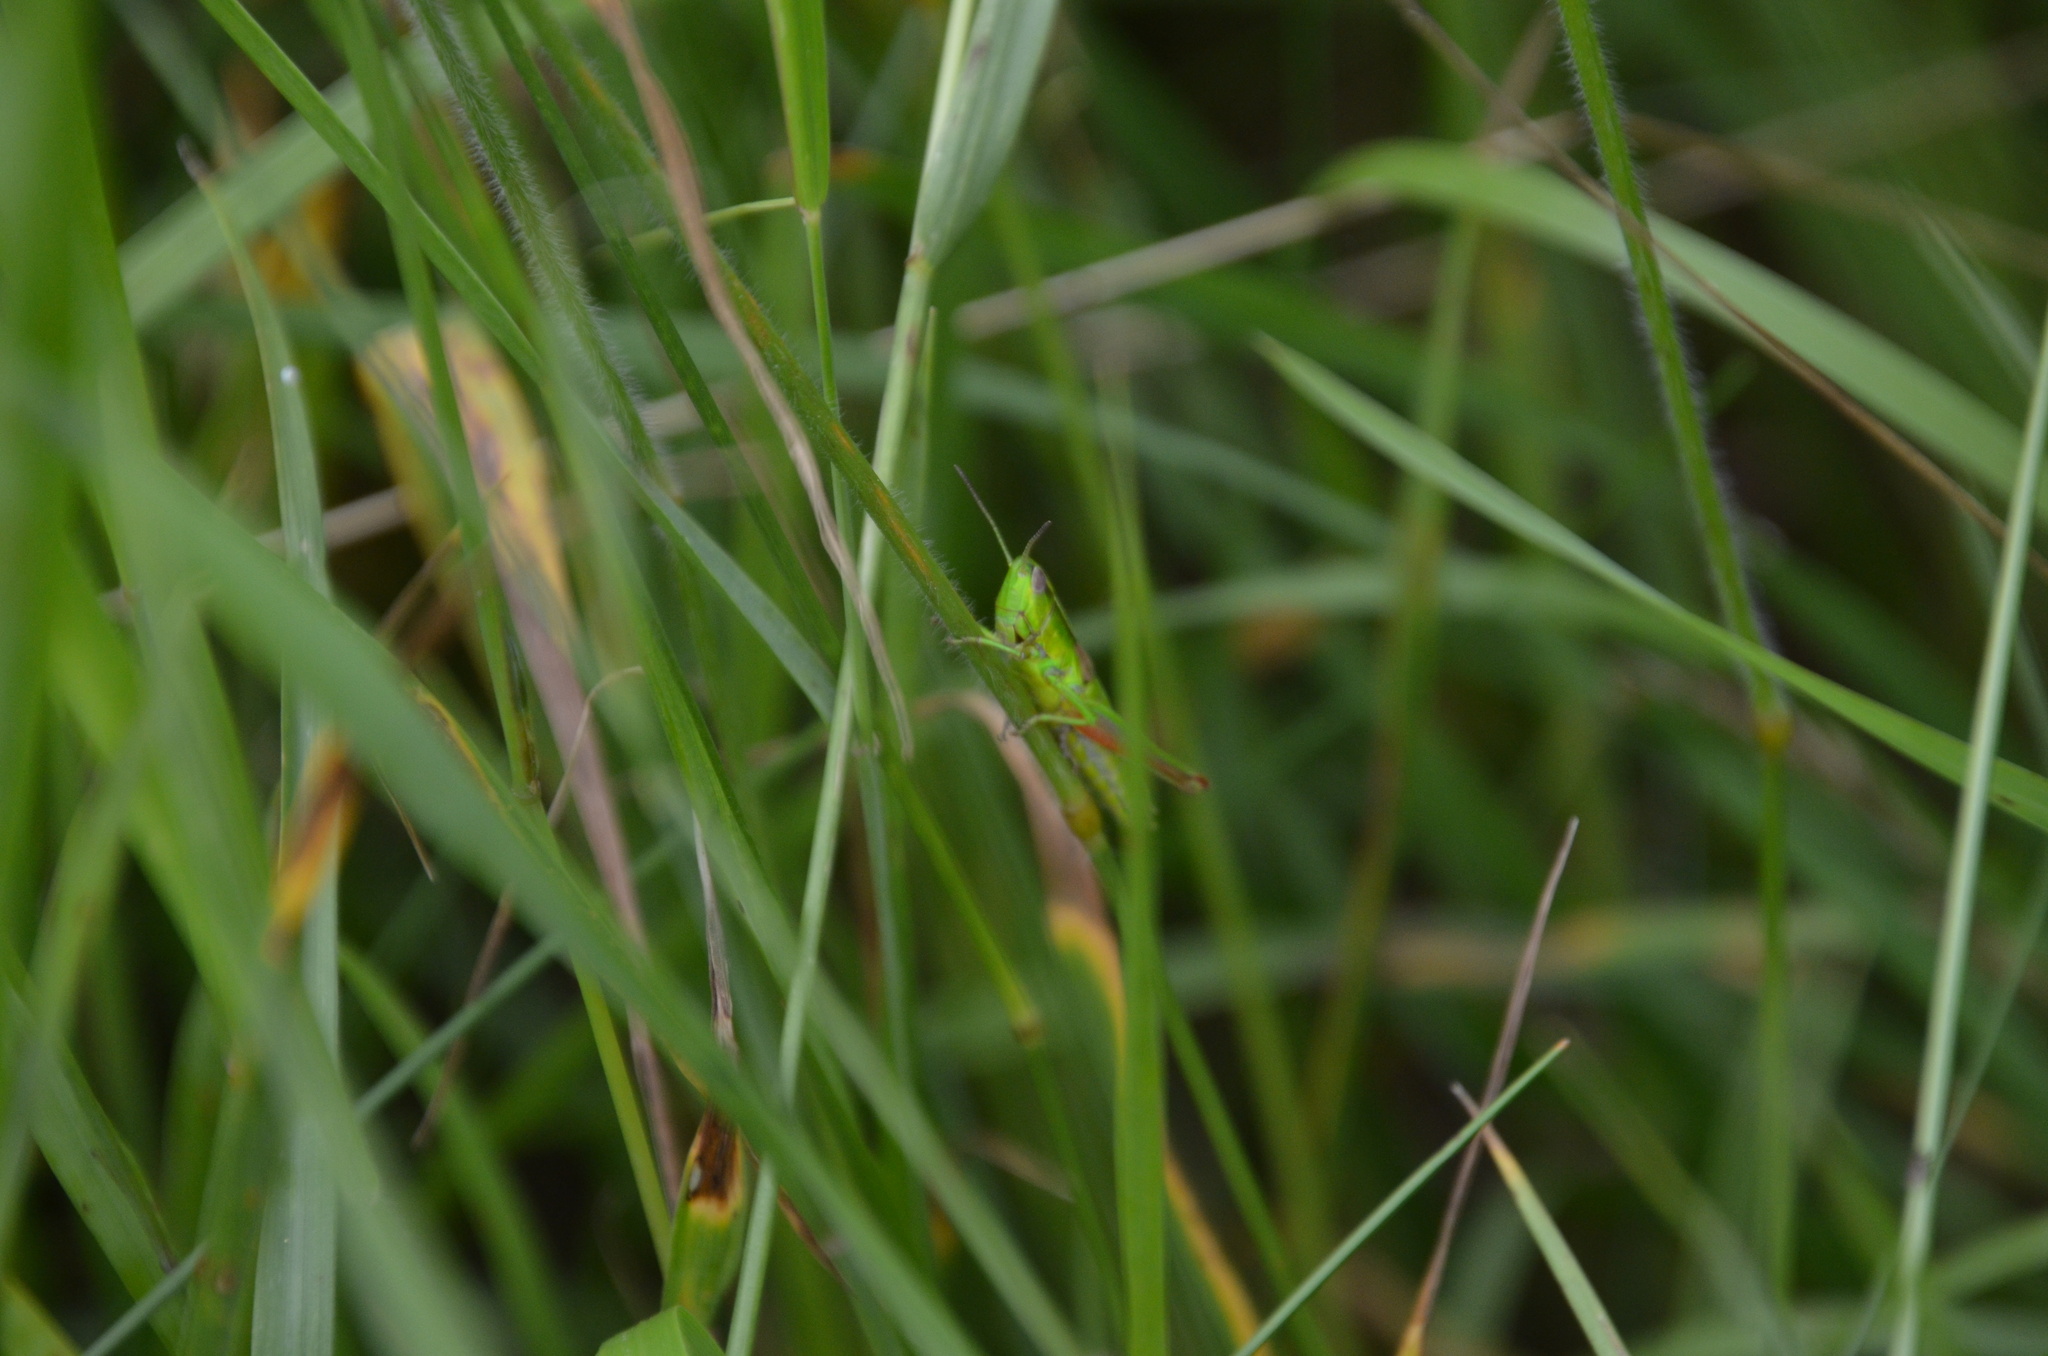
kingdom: Animalia
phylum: Arthropoda
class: Insecta
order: Orthoptera
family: Acrididae
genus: Euthystira
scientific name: Euthystira brachyptera
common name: Small gold grasshopper
